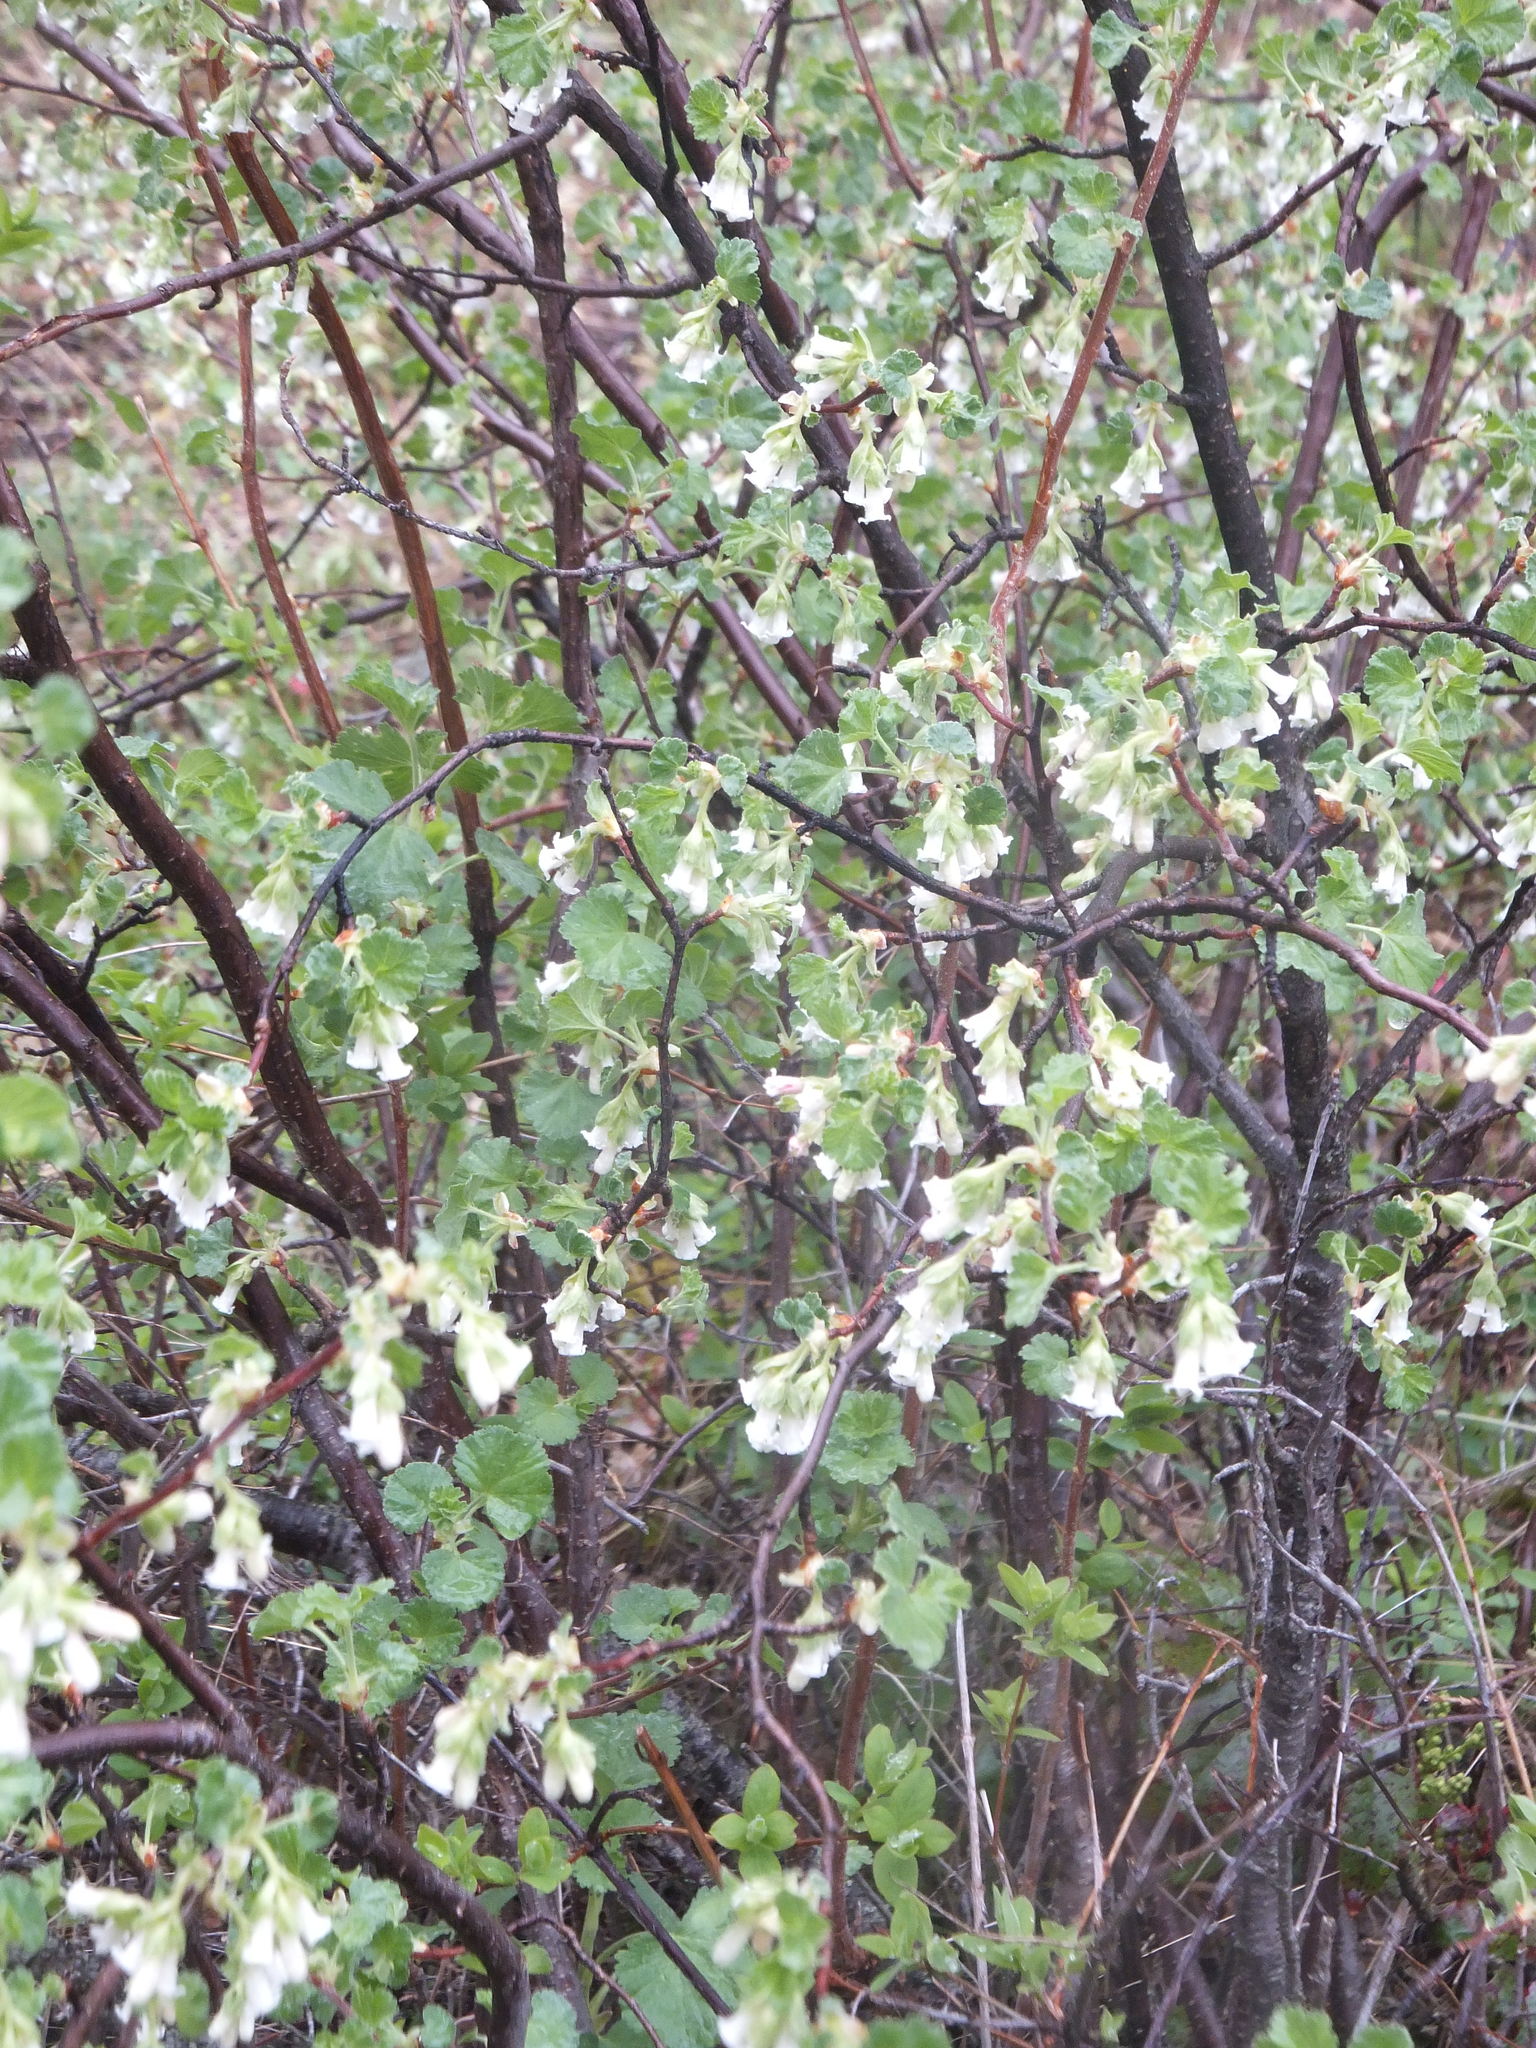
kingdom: Plantae
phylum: Tracheophyta
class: Magnoliopsida
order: Saxifragales
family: Grossulariaceae
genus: Ribes
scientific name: Ribes cereum
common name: Wax currant
